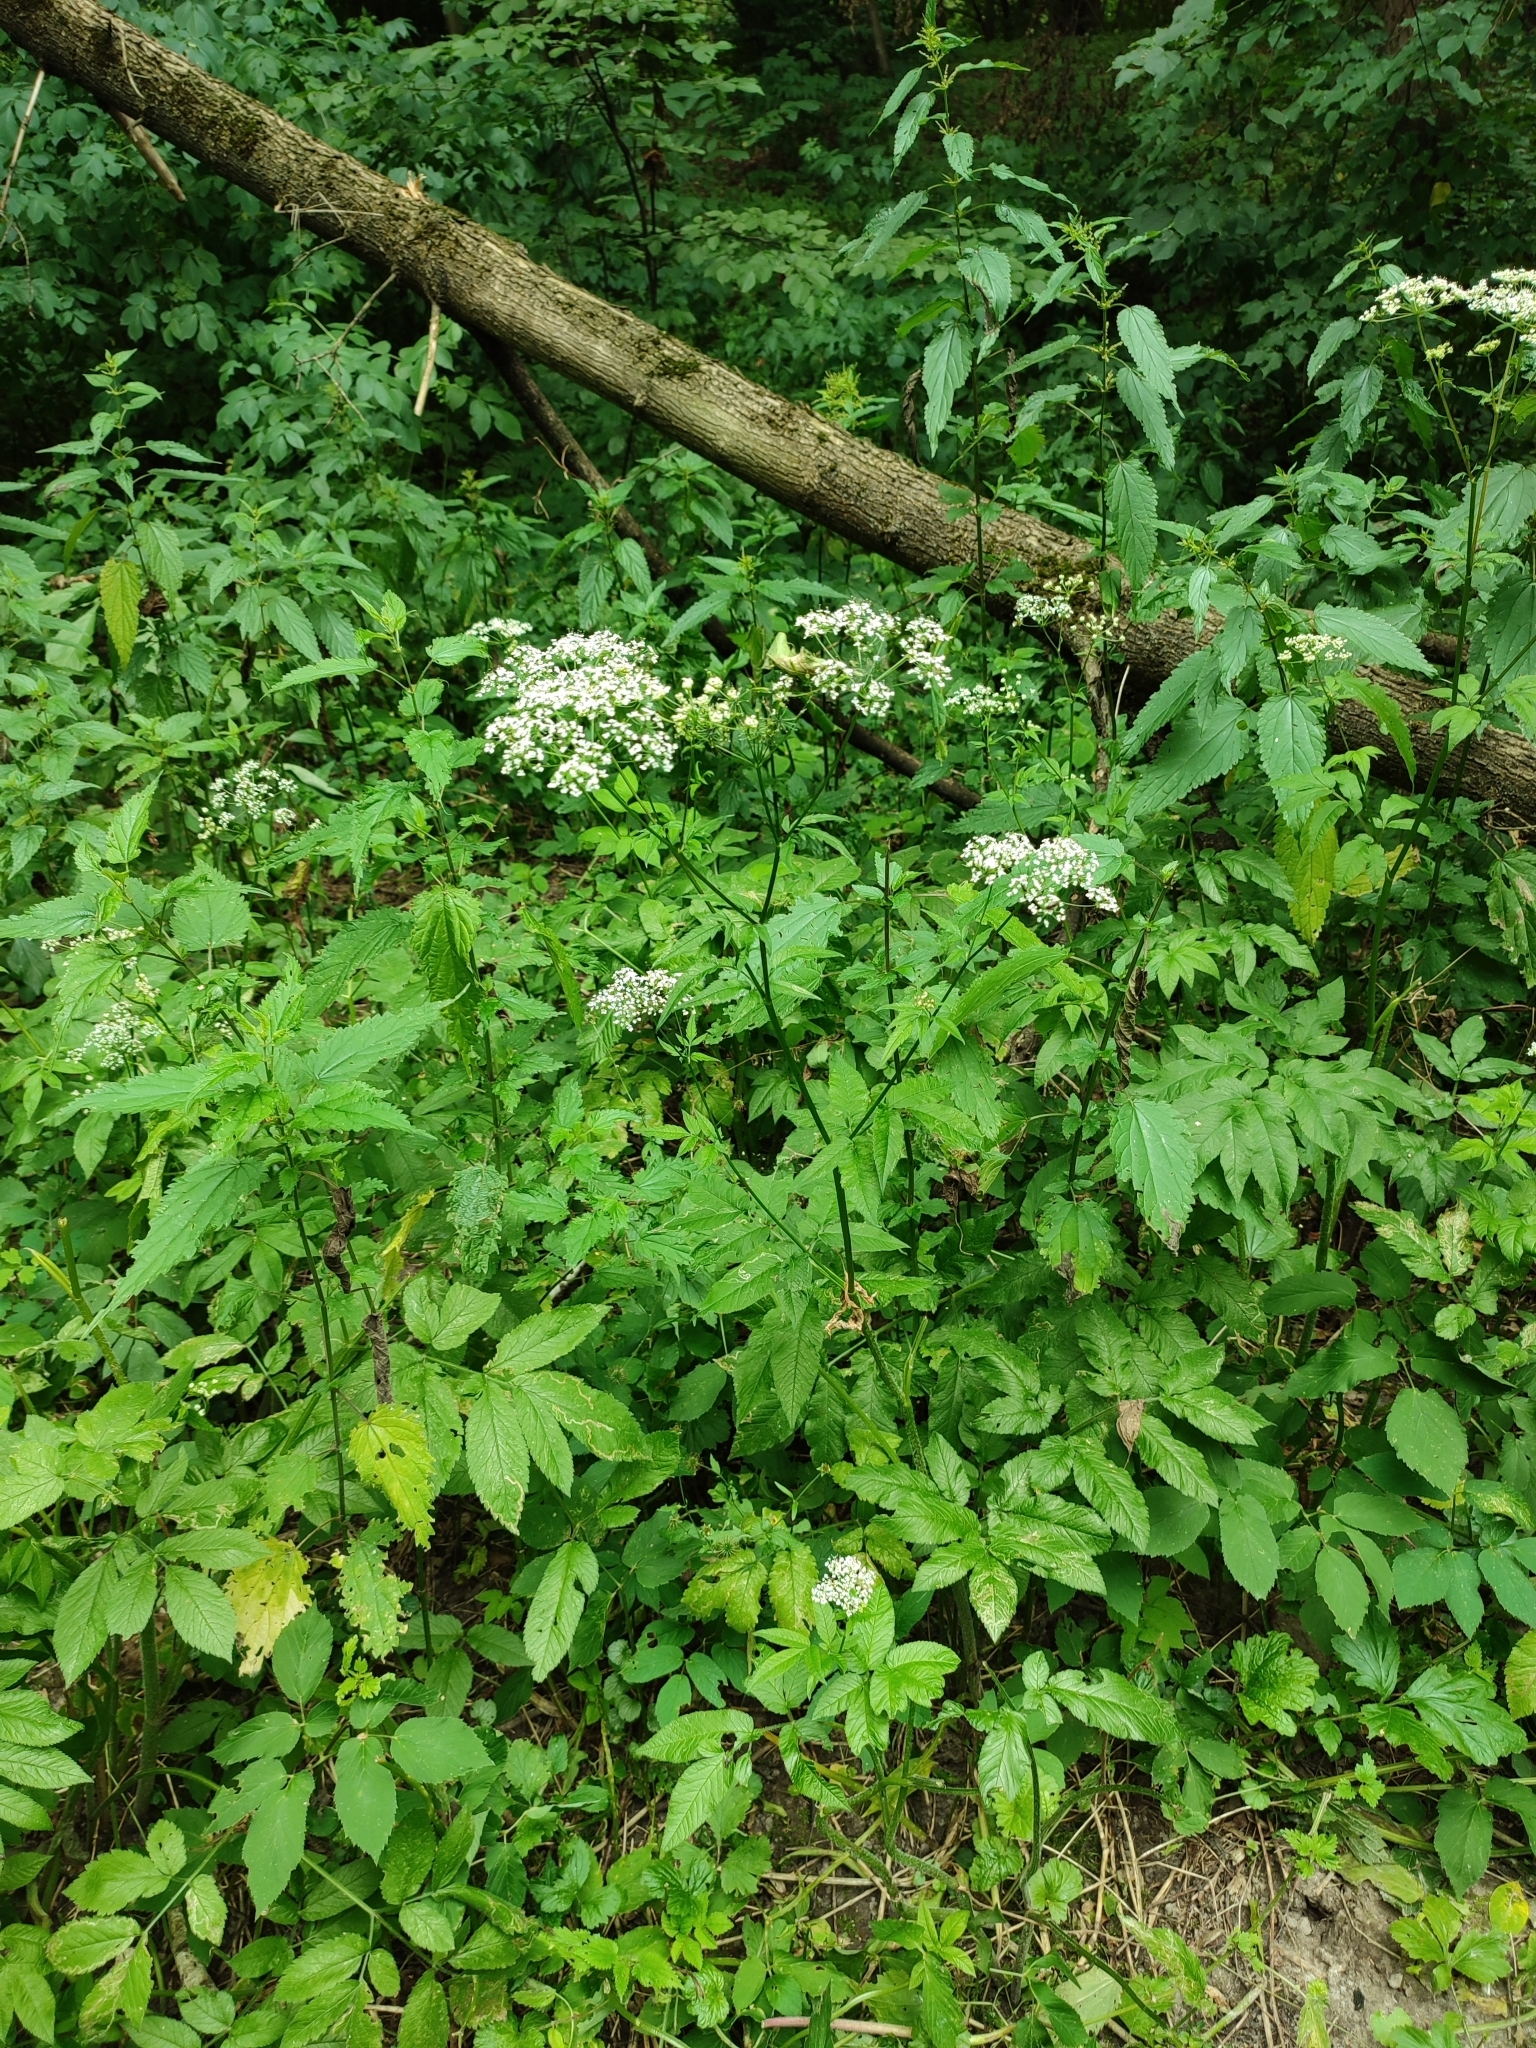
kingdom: Plantae
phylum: Tracheophyta
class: Magnoliopsida
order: Apiales
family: Apiaceae
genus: Chaerophyllum
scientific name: Chaerophyllum aromaticum
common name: Broadleaf chervil
